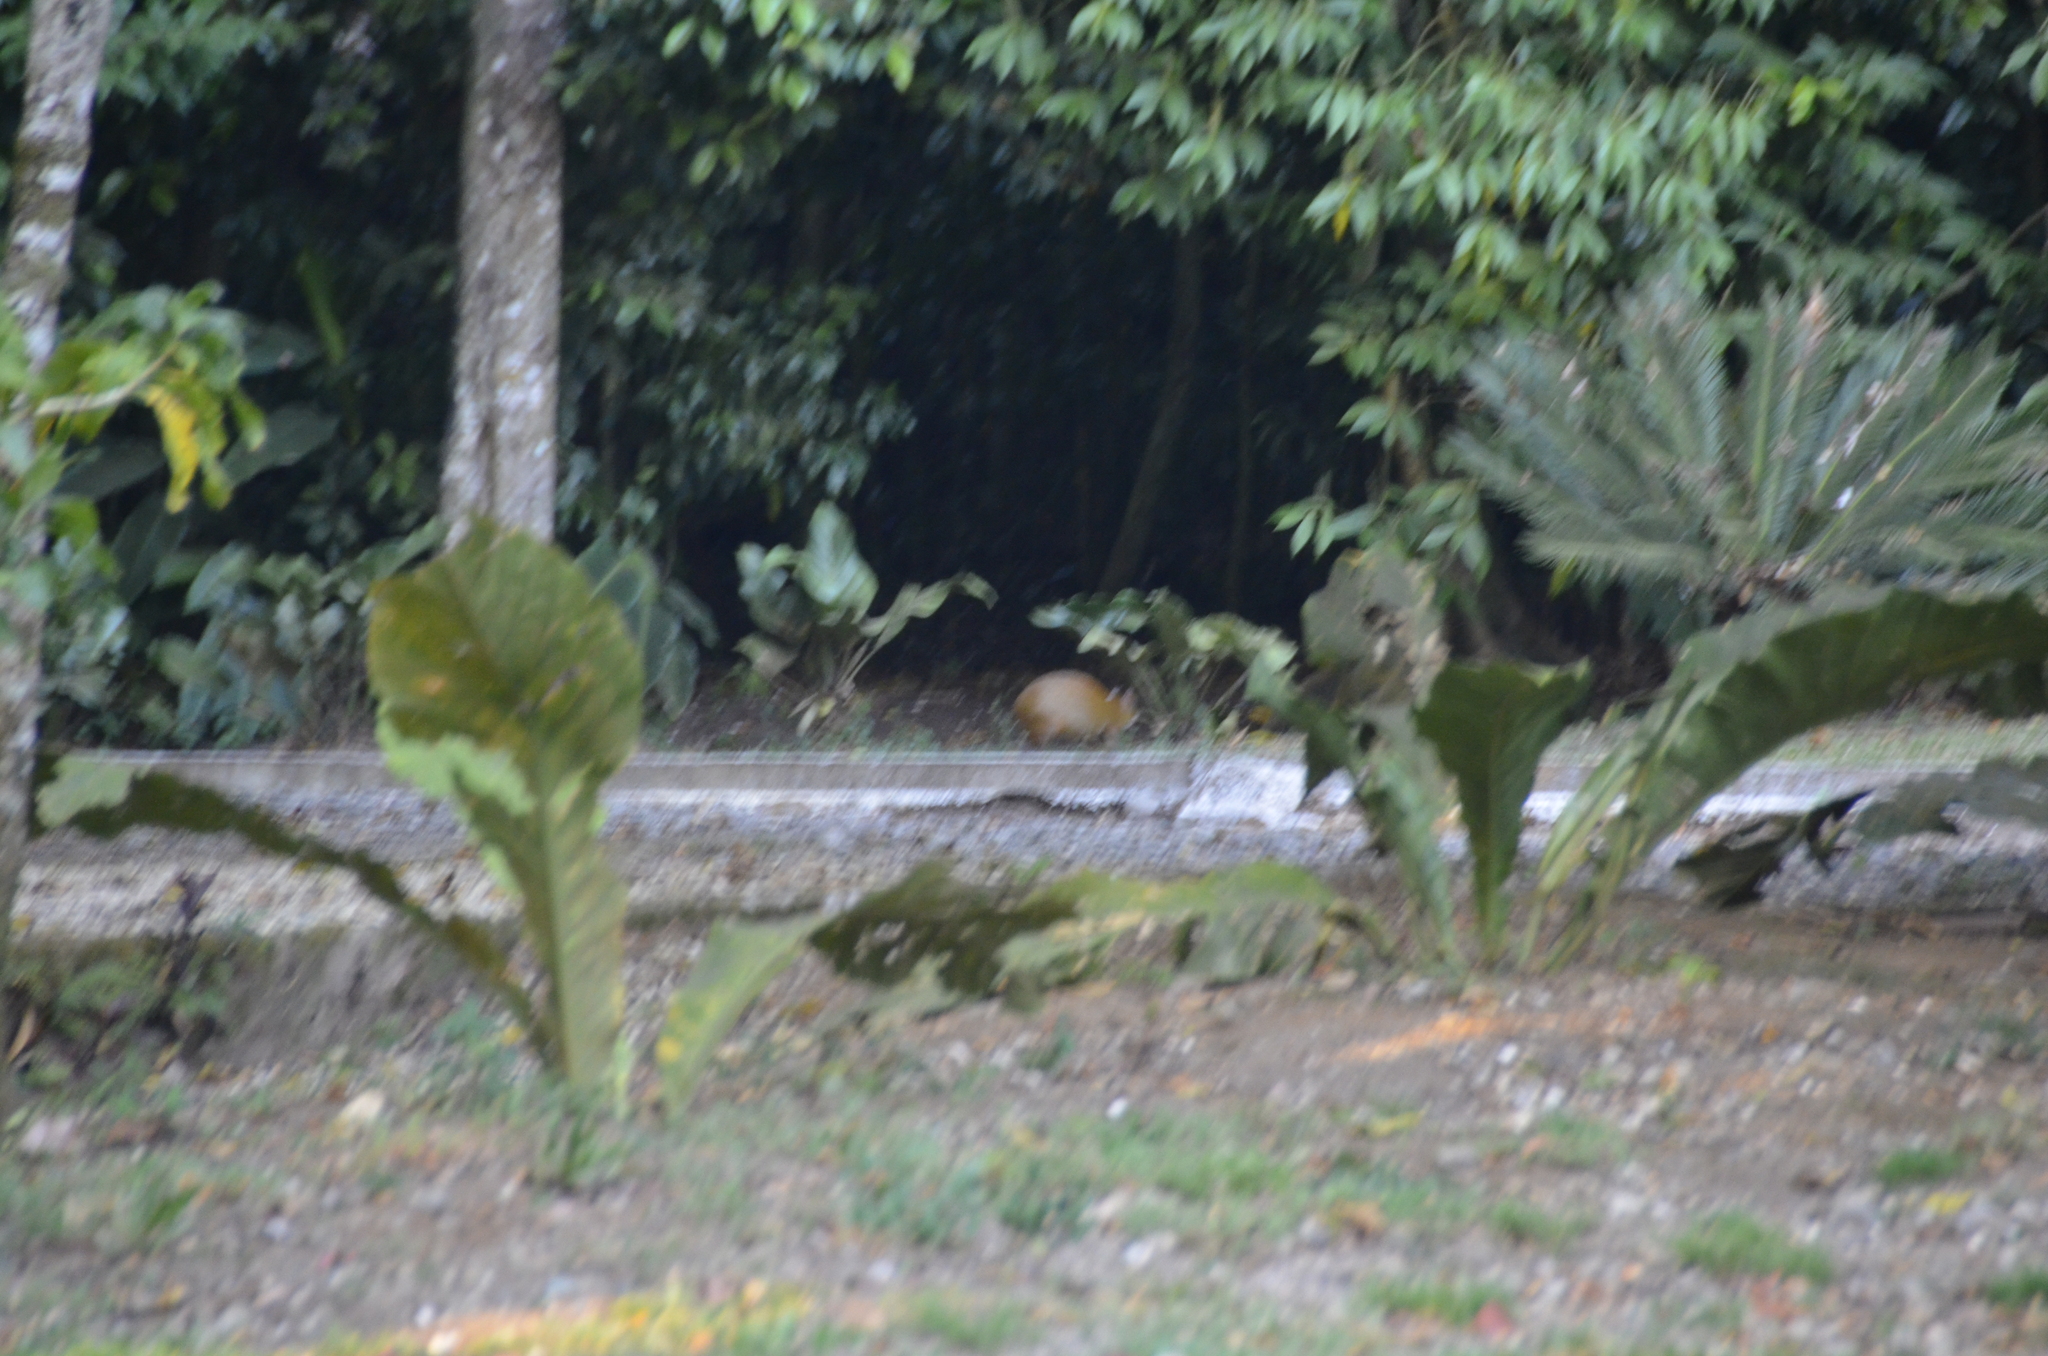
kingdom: Animalia
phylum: Chordata
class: Mammalia
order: Rodentia
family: Dasyproctidae
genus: Dasyprocta
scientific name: Dasyprocta punctata
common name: Central american agouti
